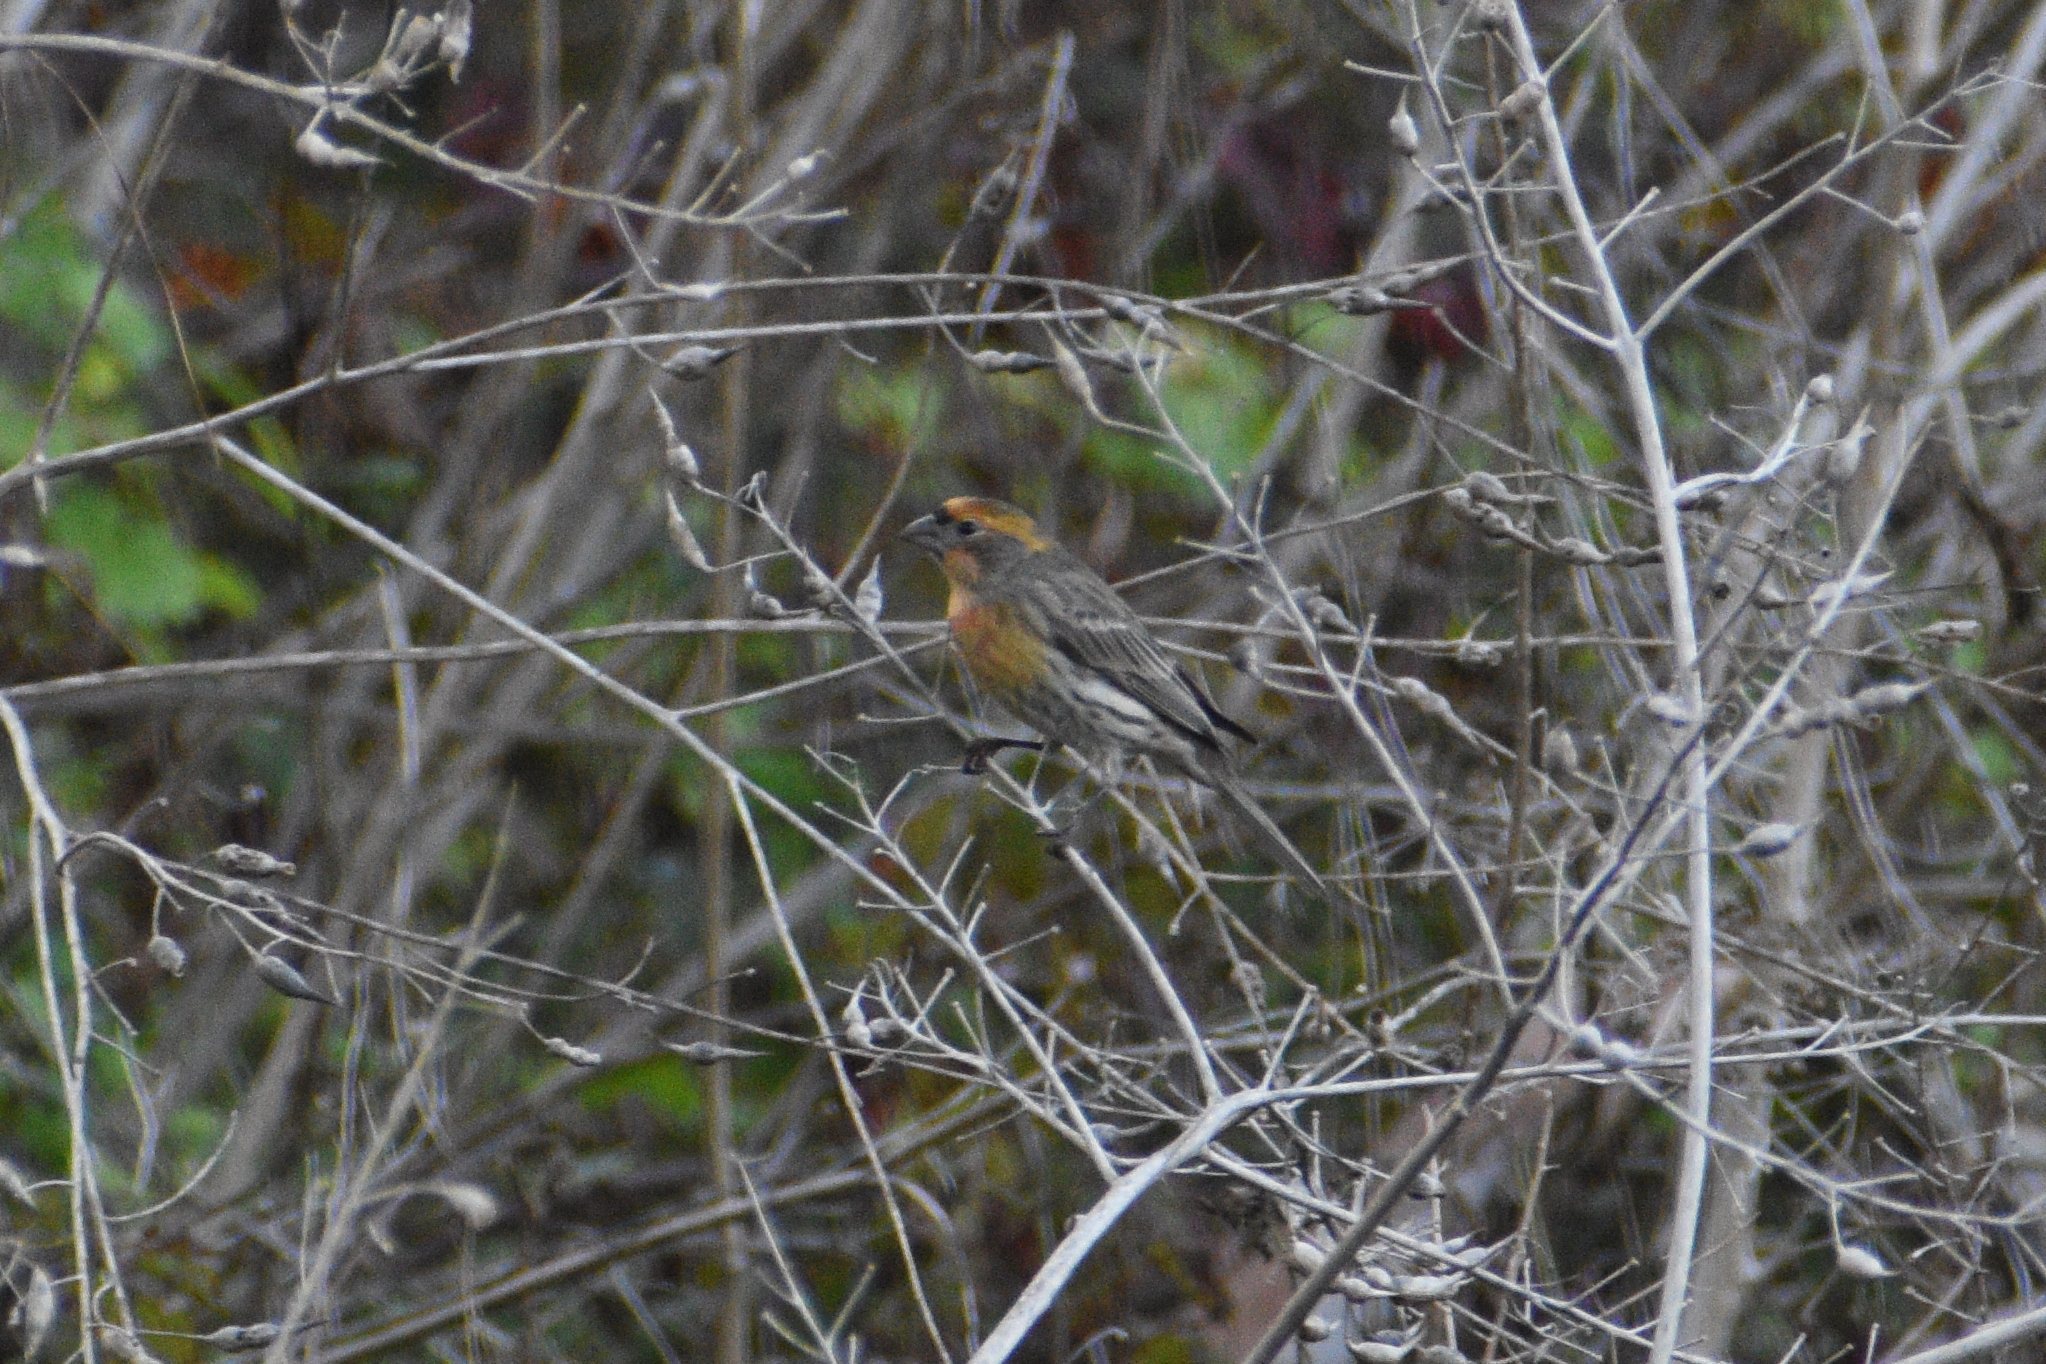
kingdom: Animalia
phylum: Chordata
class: Aves
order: Passeriformes
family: Fringillidae
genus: Haemorhous
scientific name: Haemorhous mexicanus
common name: House finch
